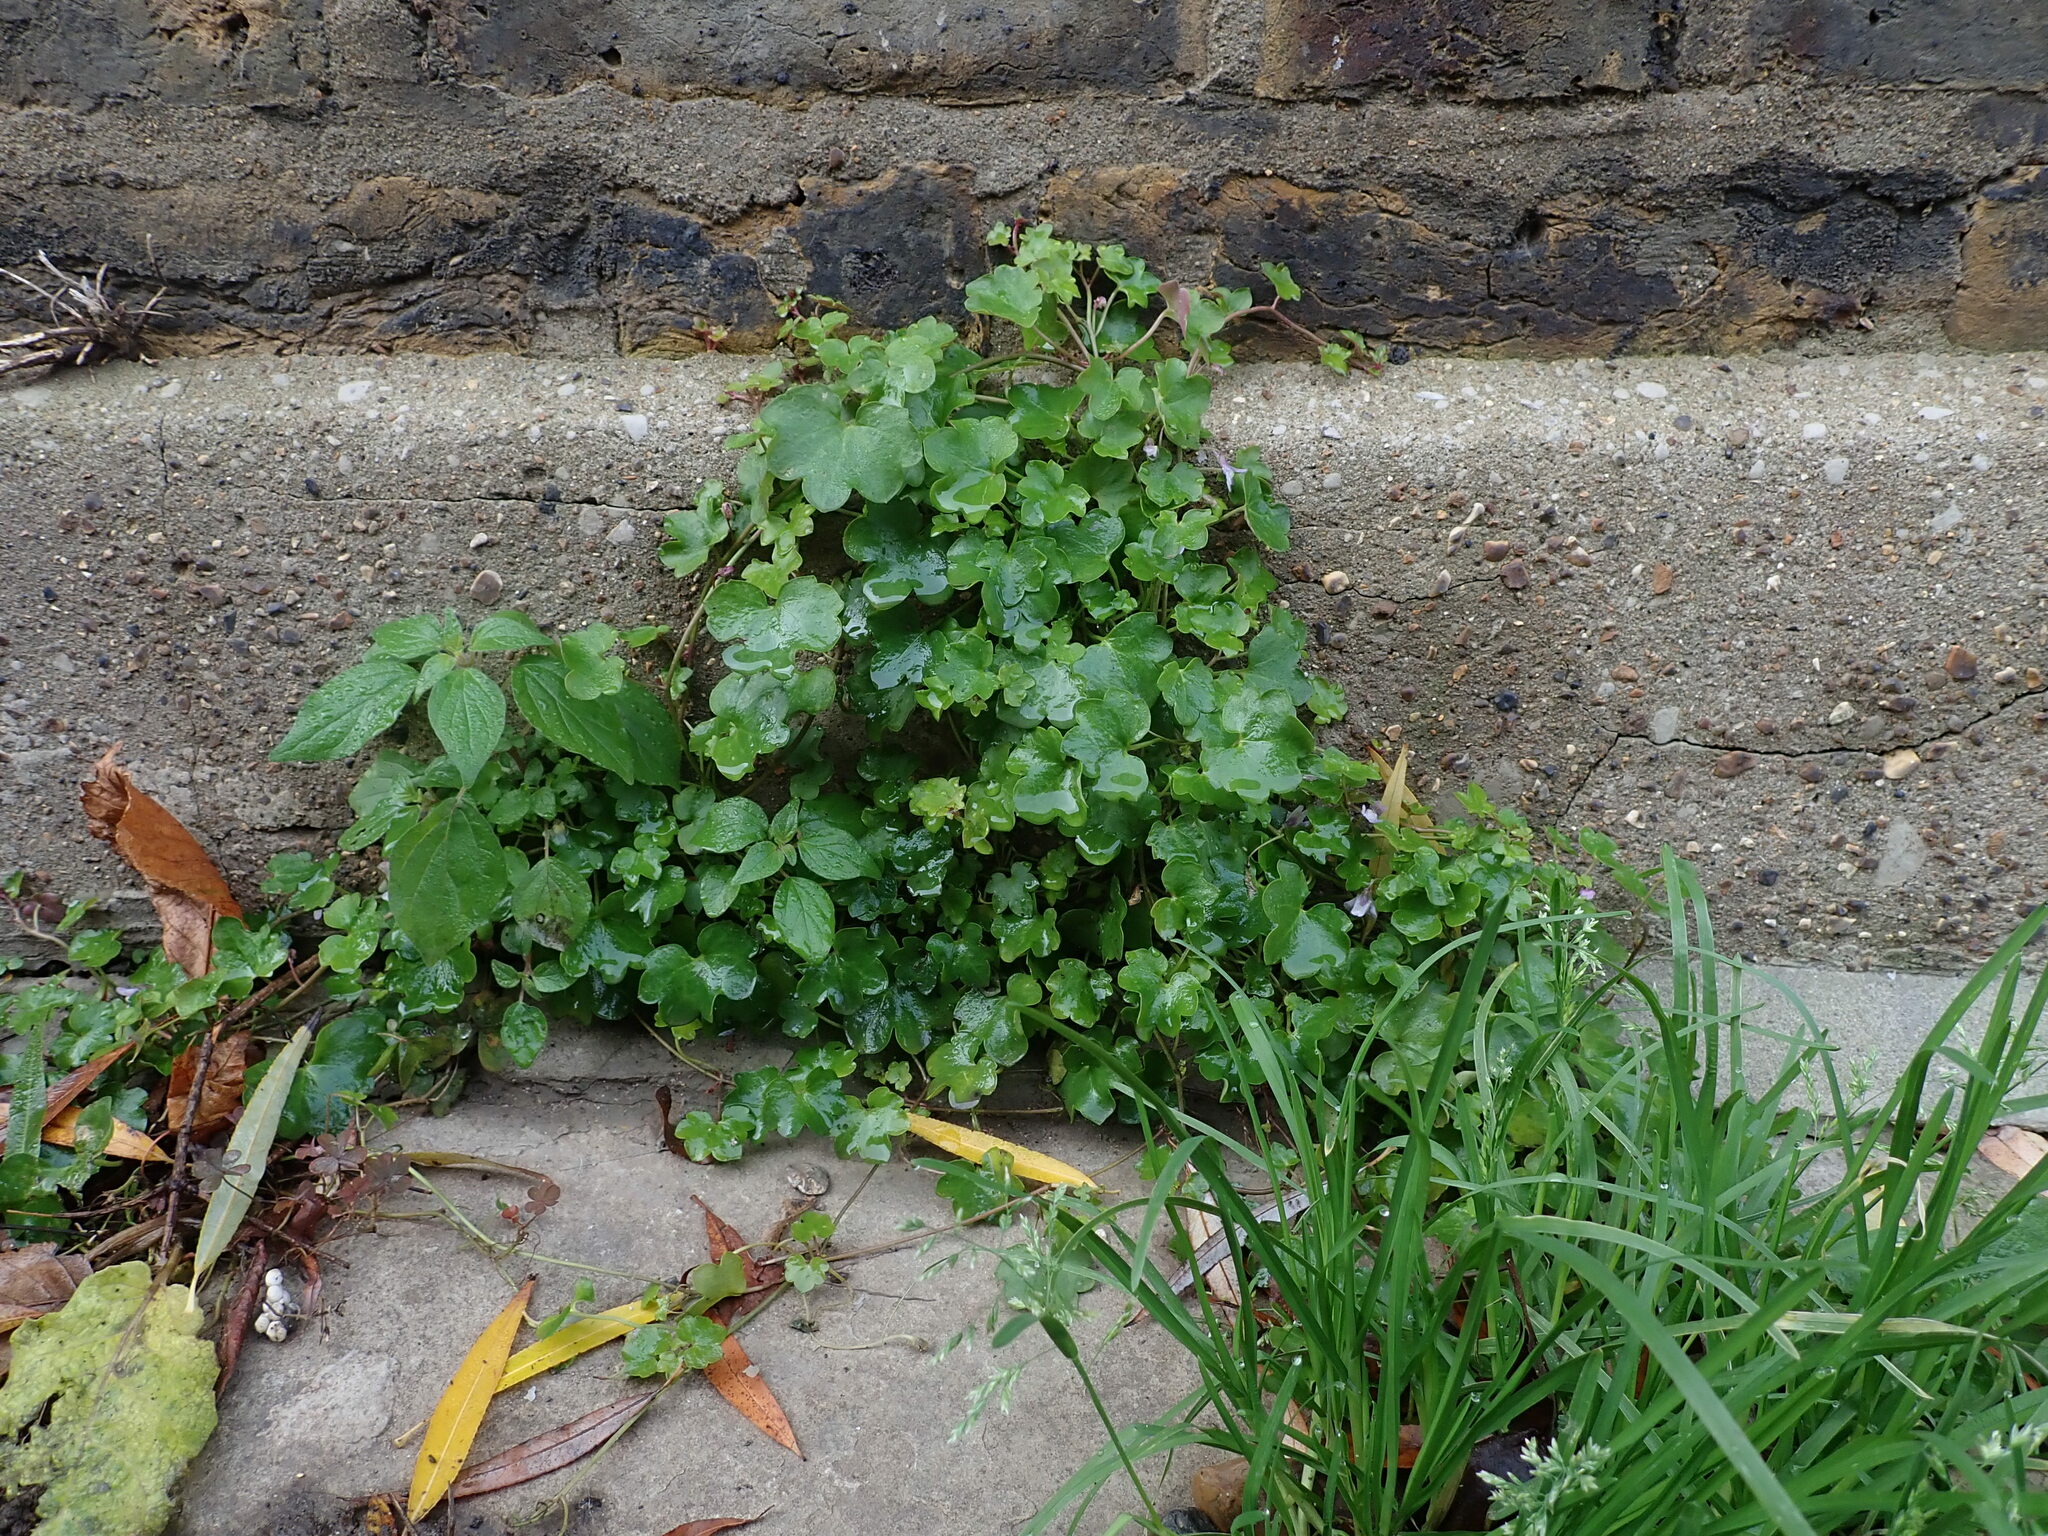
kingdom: Plantae
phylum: Tracheophyta
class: Magnoliopsida
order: Lamiales
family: Plantaginaceae
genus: Cymbalaria
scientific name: Cymbalaria muralis
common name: Ivy-leaved toadflax
